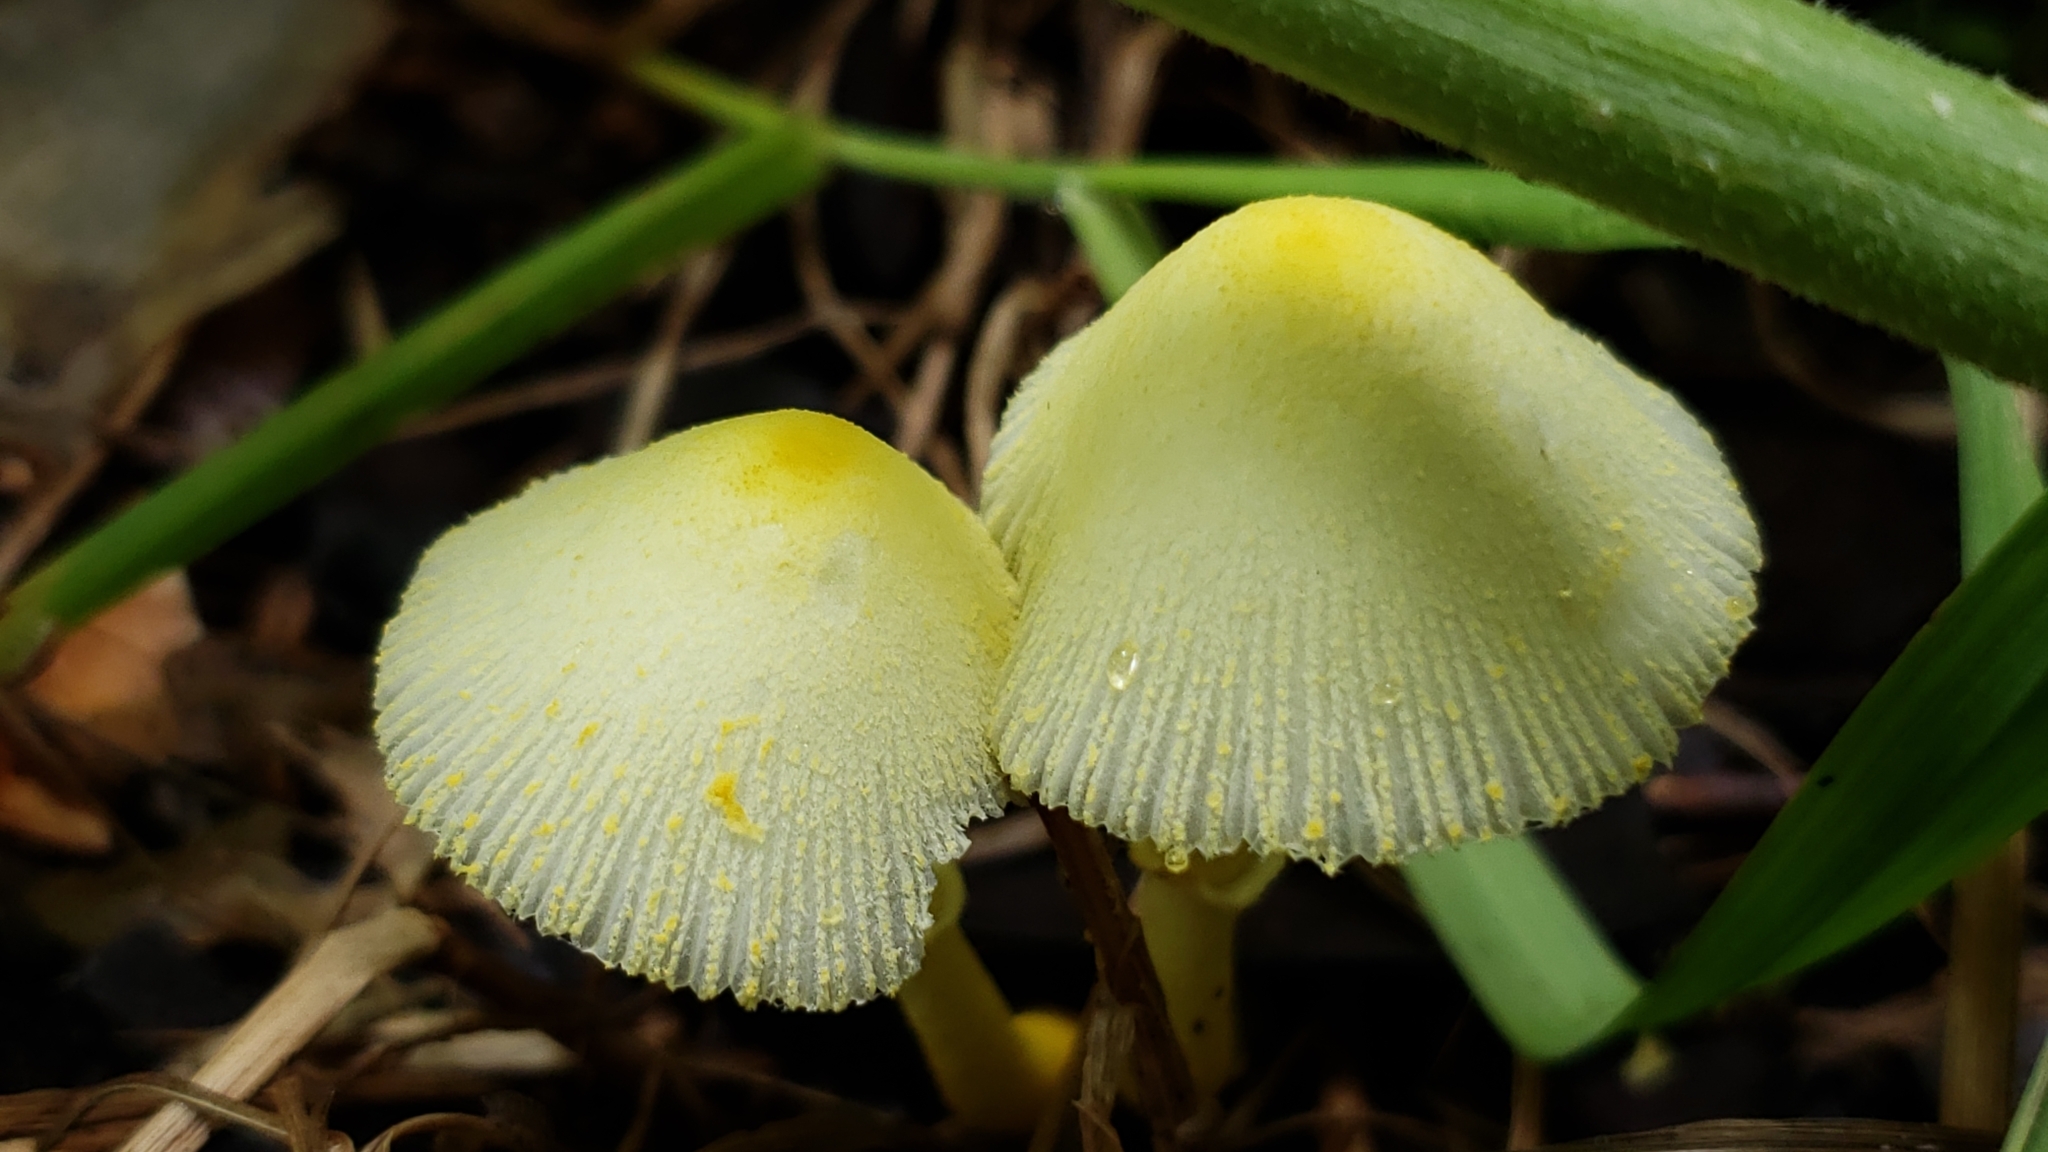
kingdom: Fungi
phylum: Basidiomycota
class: Agaricomycetes
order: Agaricales
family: Agaricaceae
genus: Leucocoprinus
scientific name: Leucocoprinus birnbaumii
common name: Plantpot dapperling
